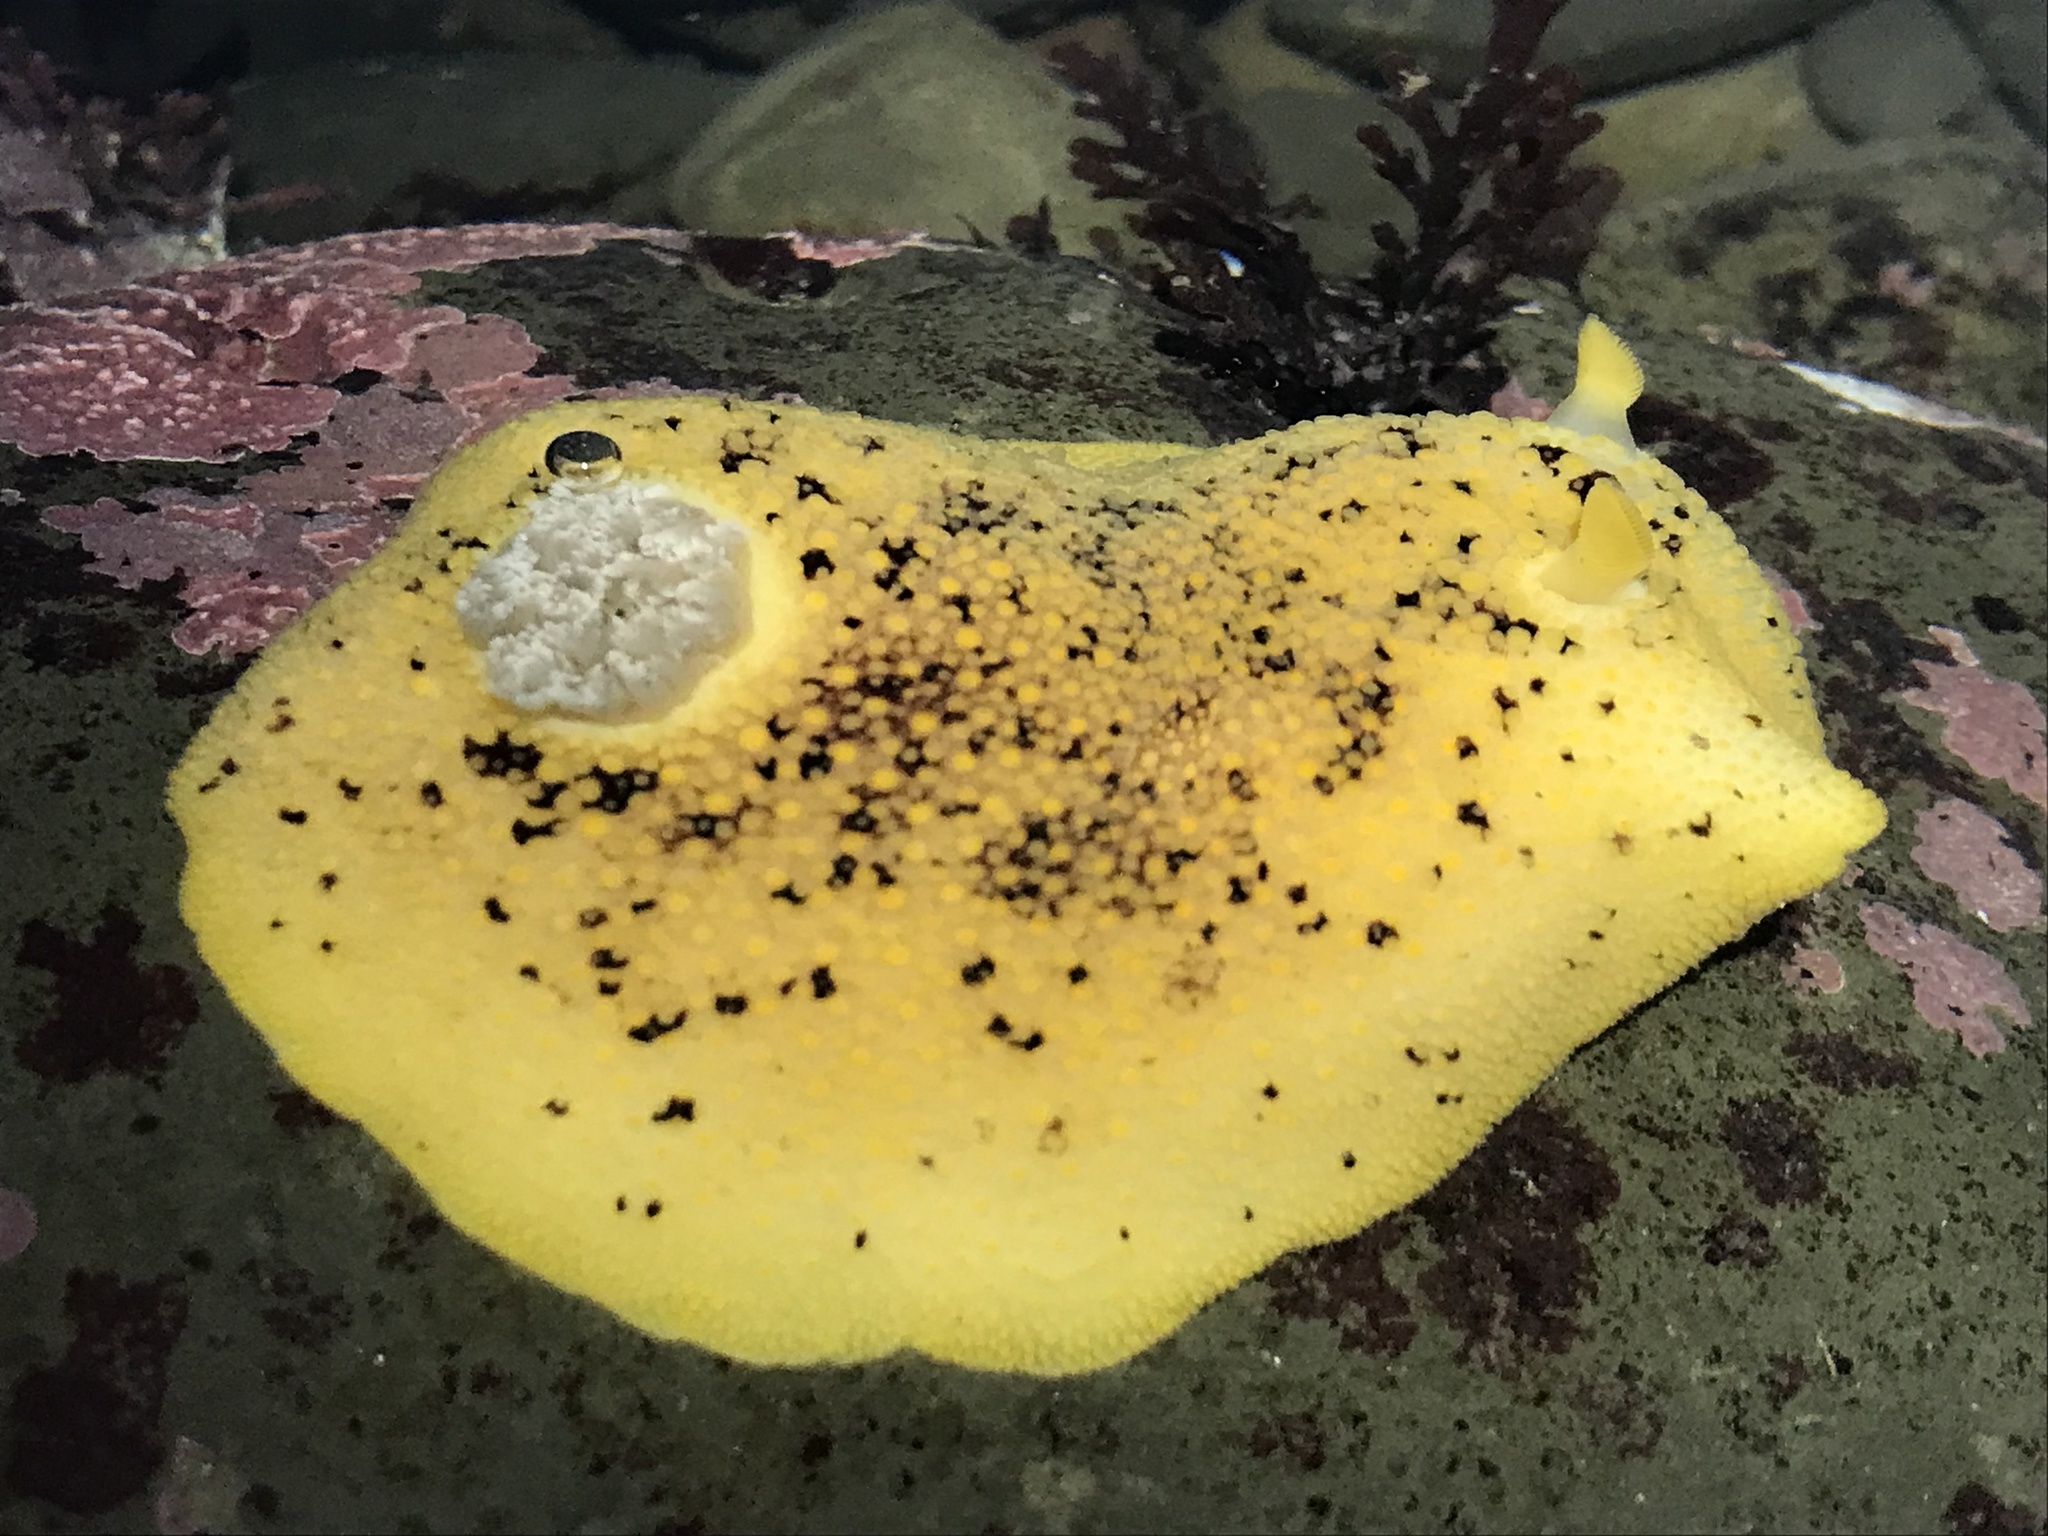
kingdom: Animalia
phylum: Mollusca
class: Gastropoda
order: Nudibranchia
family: Discodorididae
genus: Peltodoris
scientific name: Peltodoris nobilis
